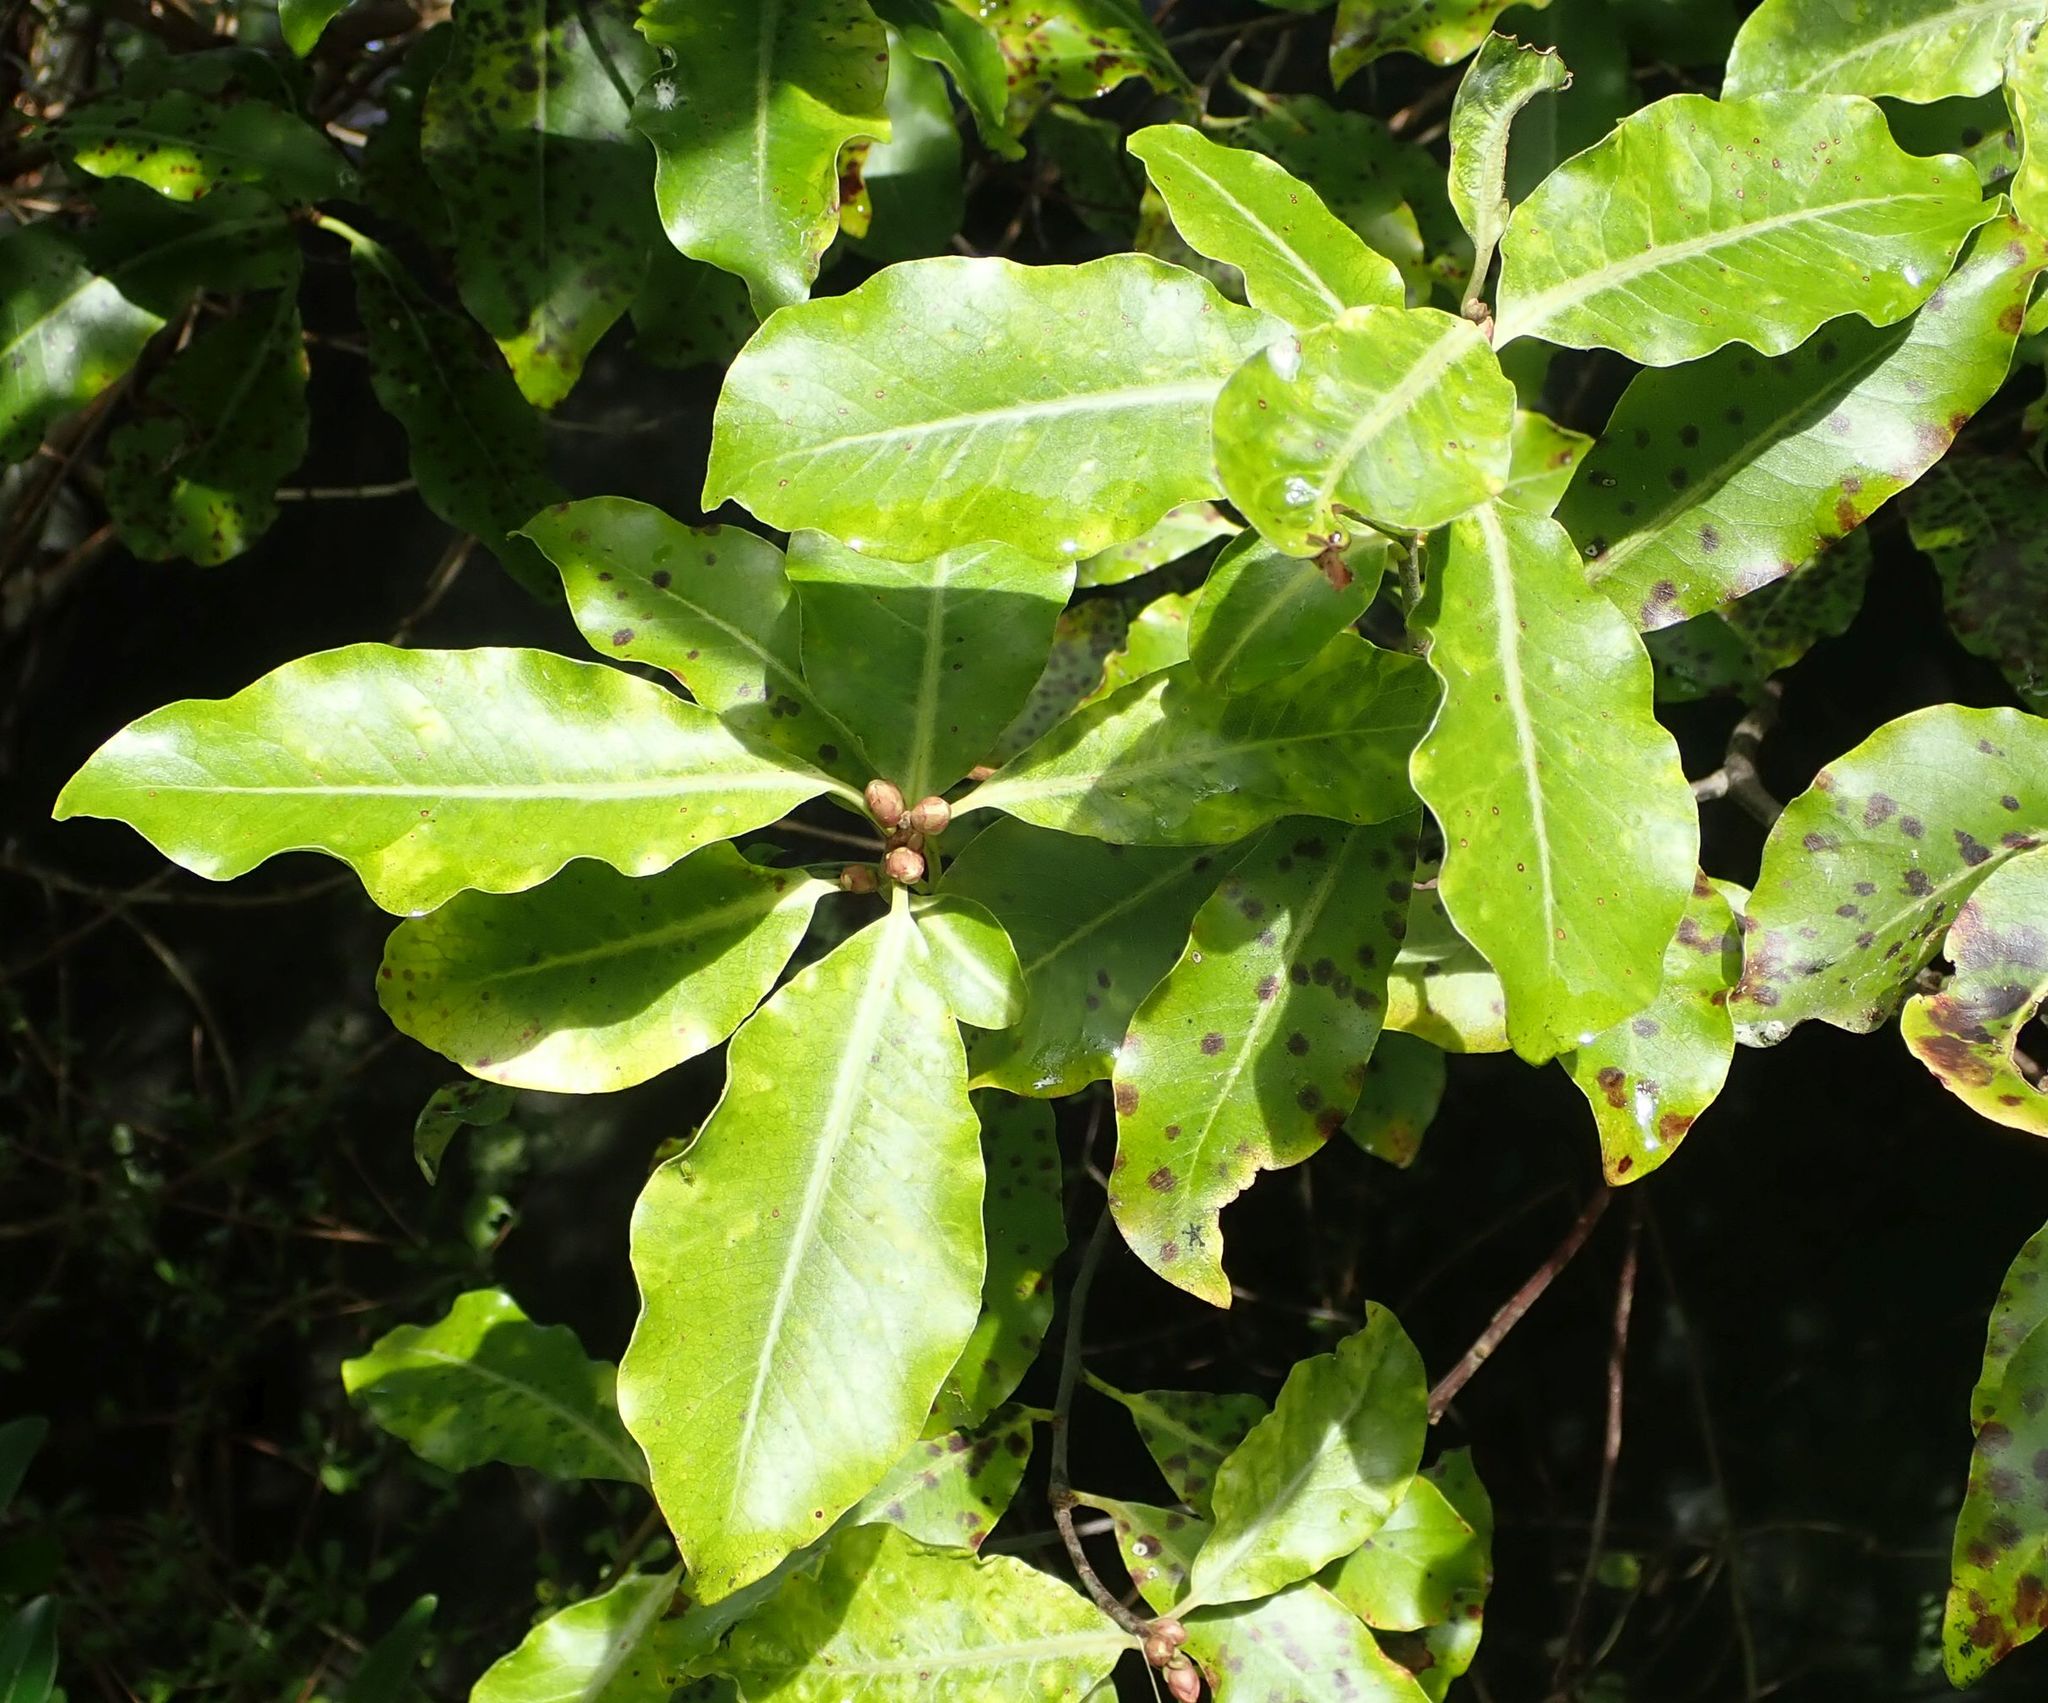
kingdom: Plantae
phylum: Tracheophyta
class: Magnoliopsida
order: Apiales
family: Pittosporaceae
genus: Pittosporum
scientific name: Pittosporum tenuifolium
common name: Kohuhu
